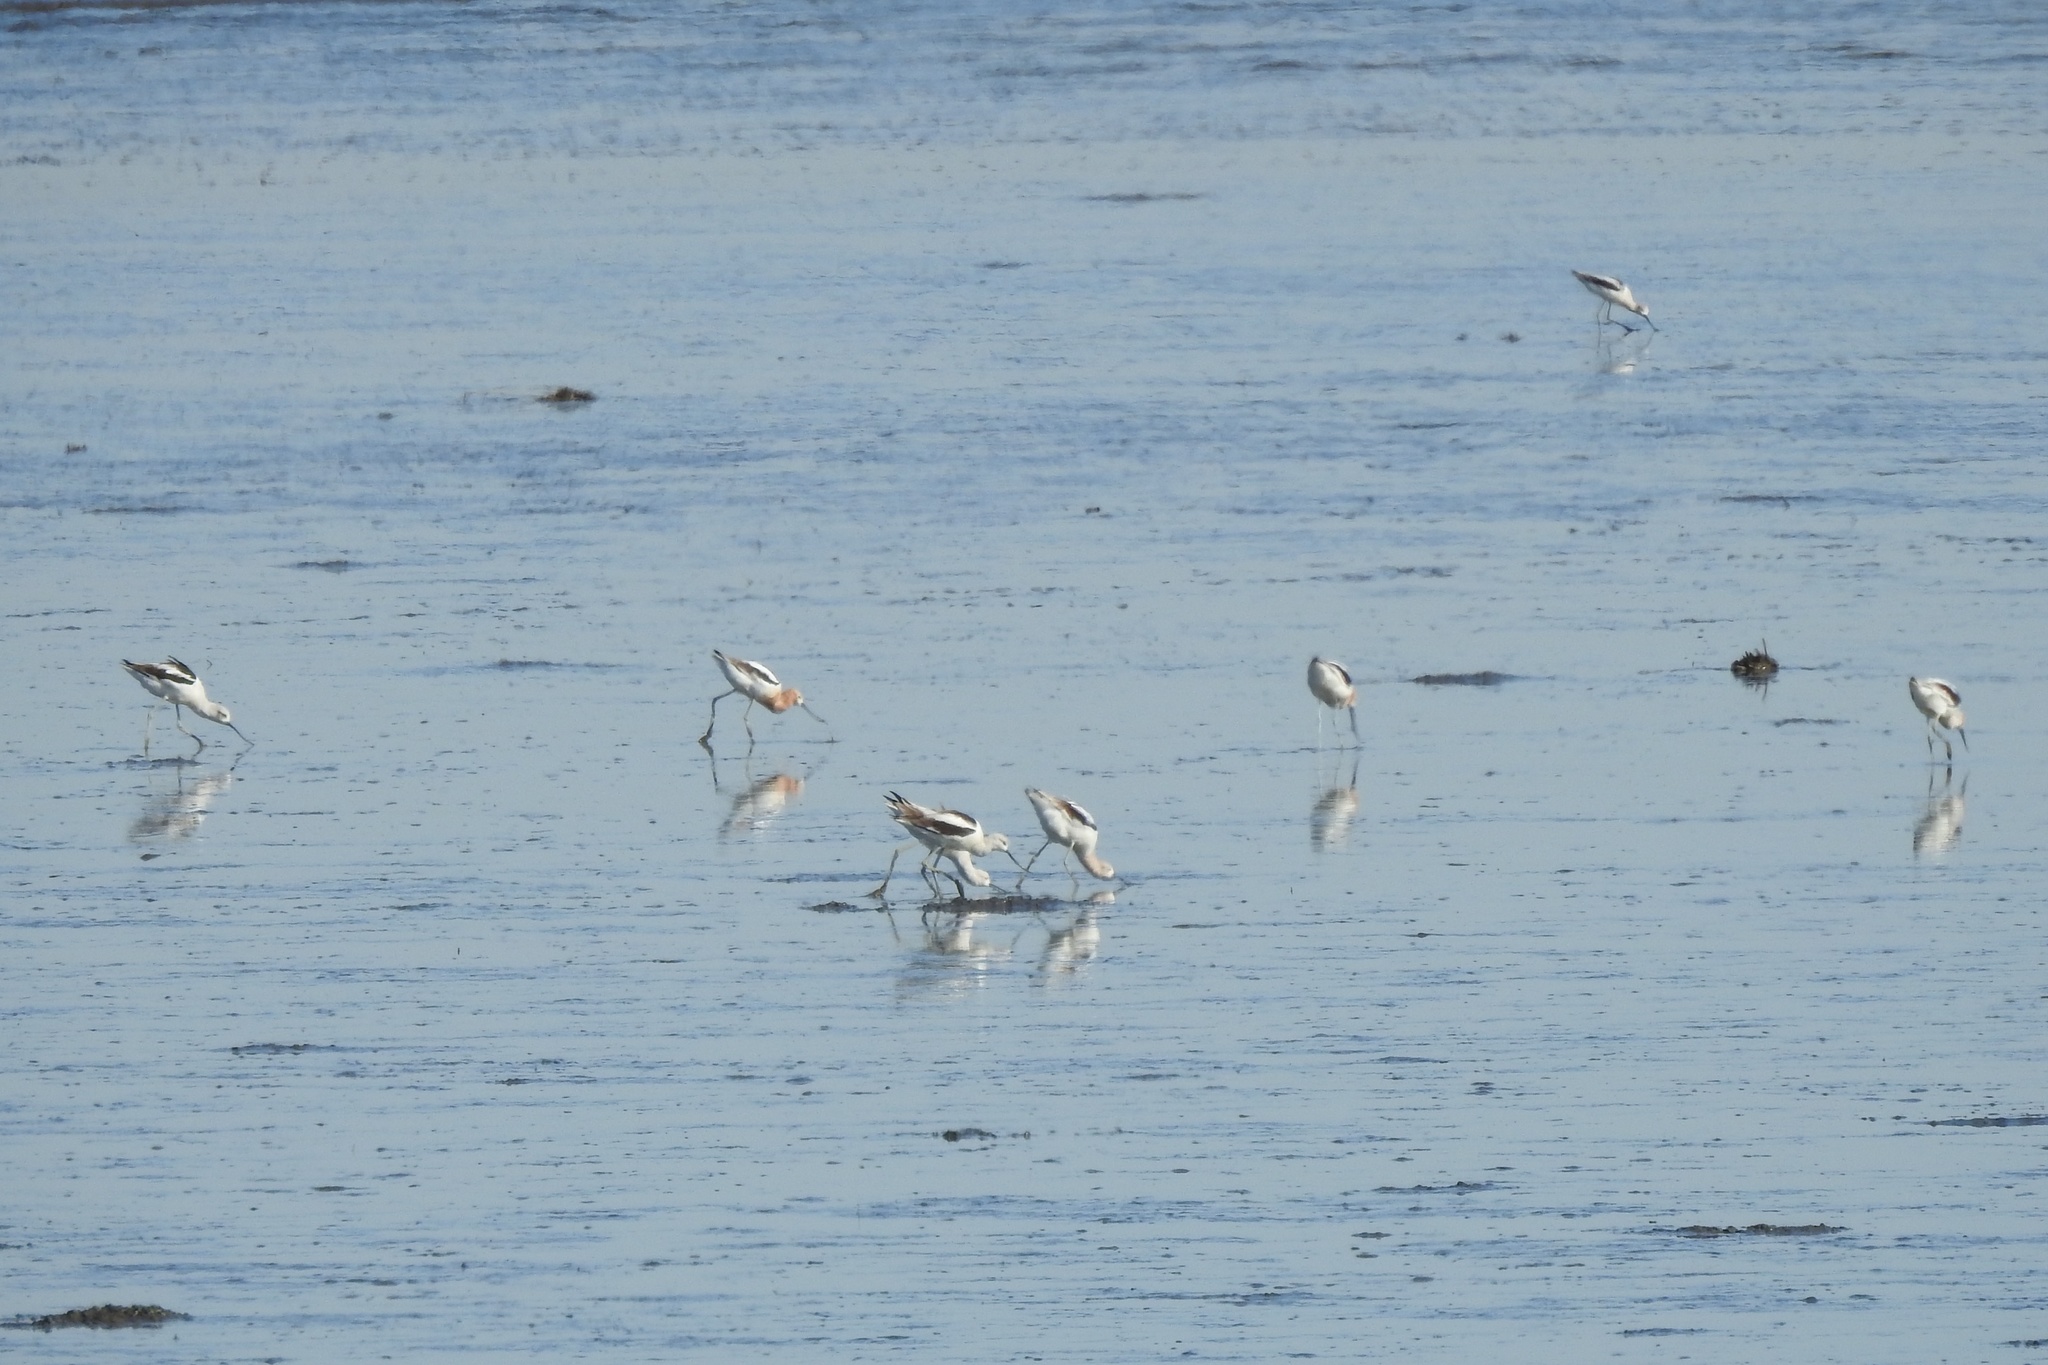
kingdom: Animalia
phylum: Chordata
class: Aves
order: Charadriiformes
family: Recurvirostridae
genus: Recurvirostra
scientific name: Recurvirostra americana
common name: American avocet
